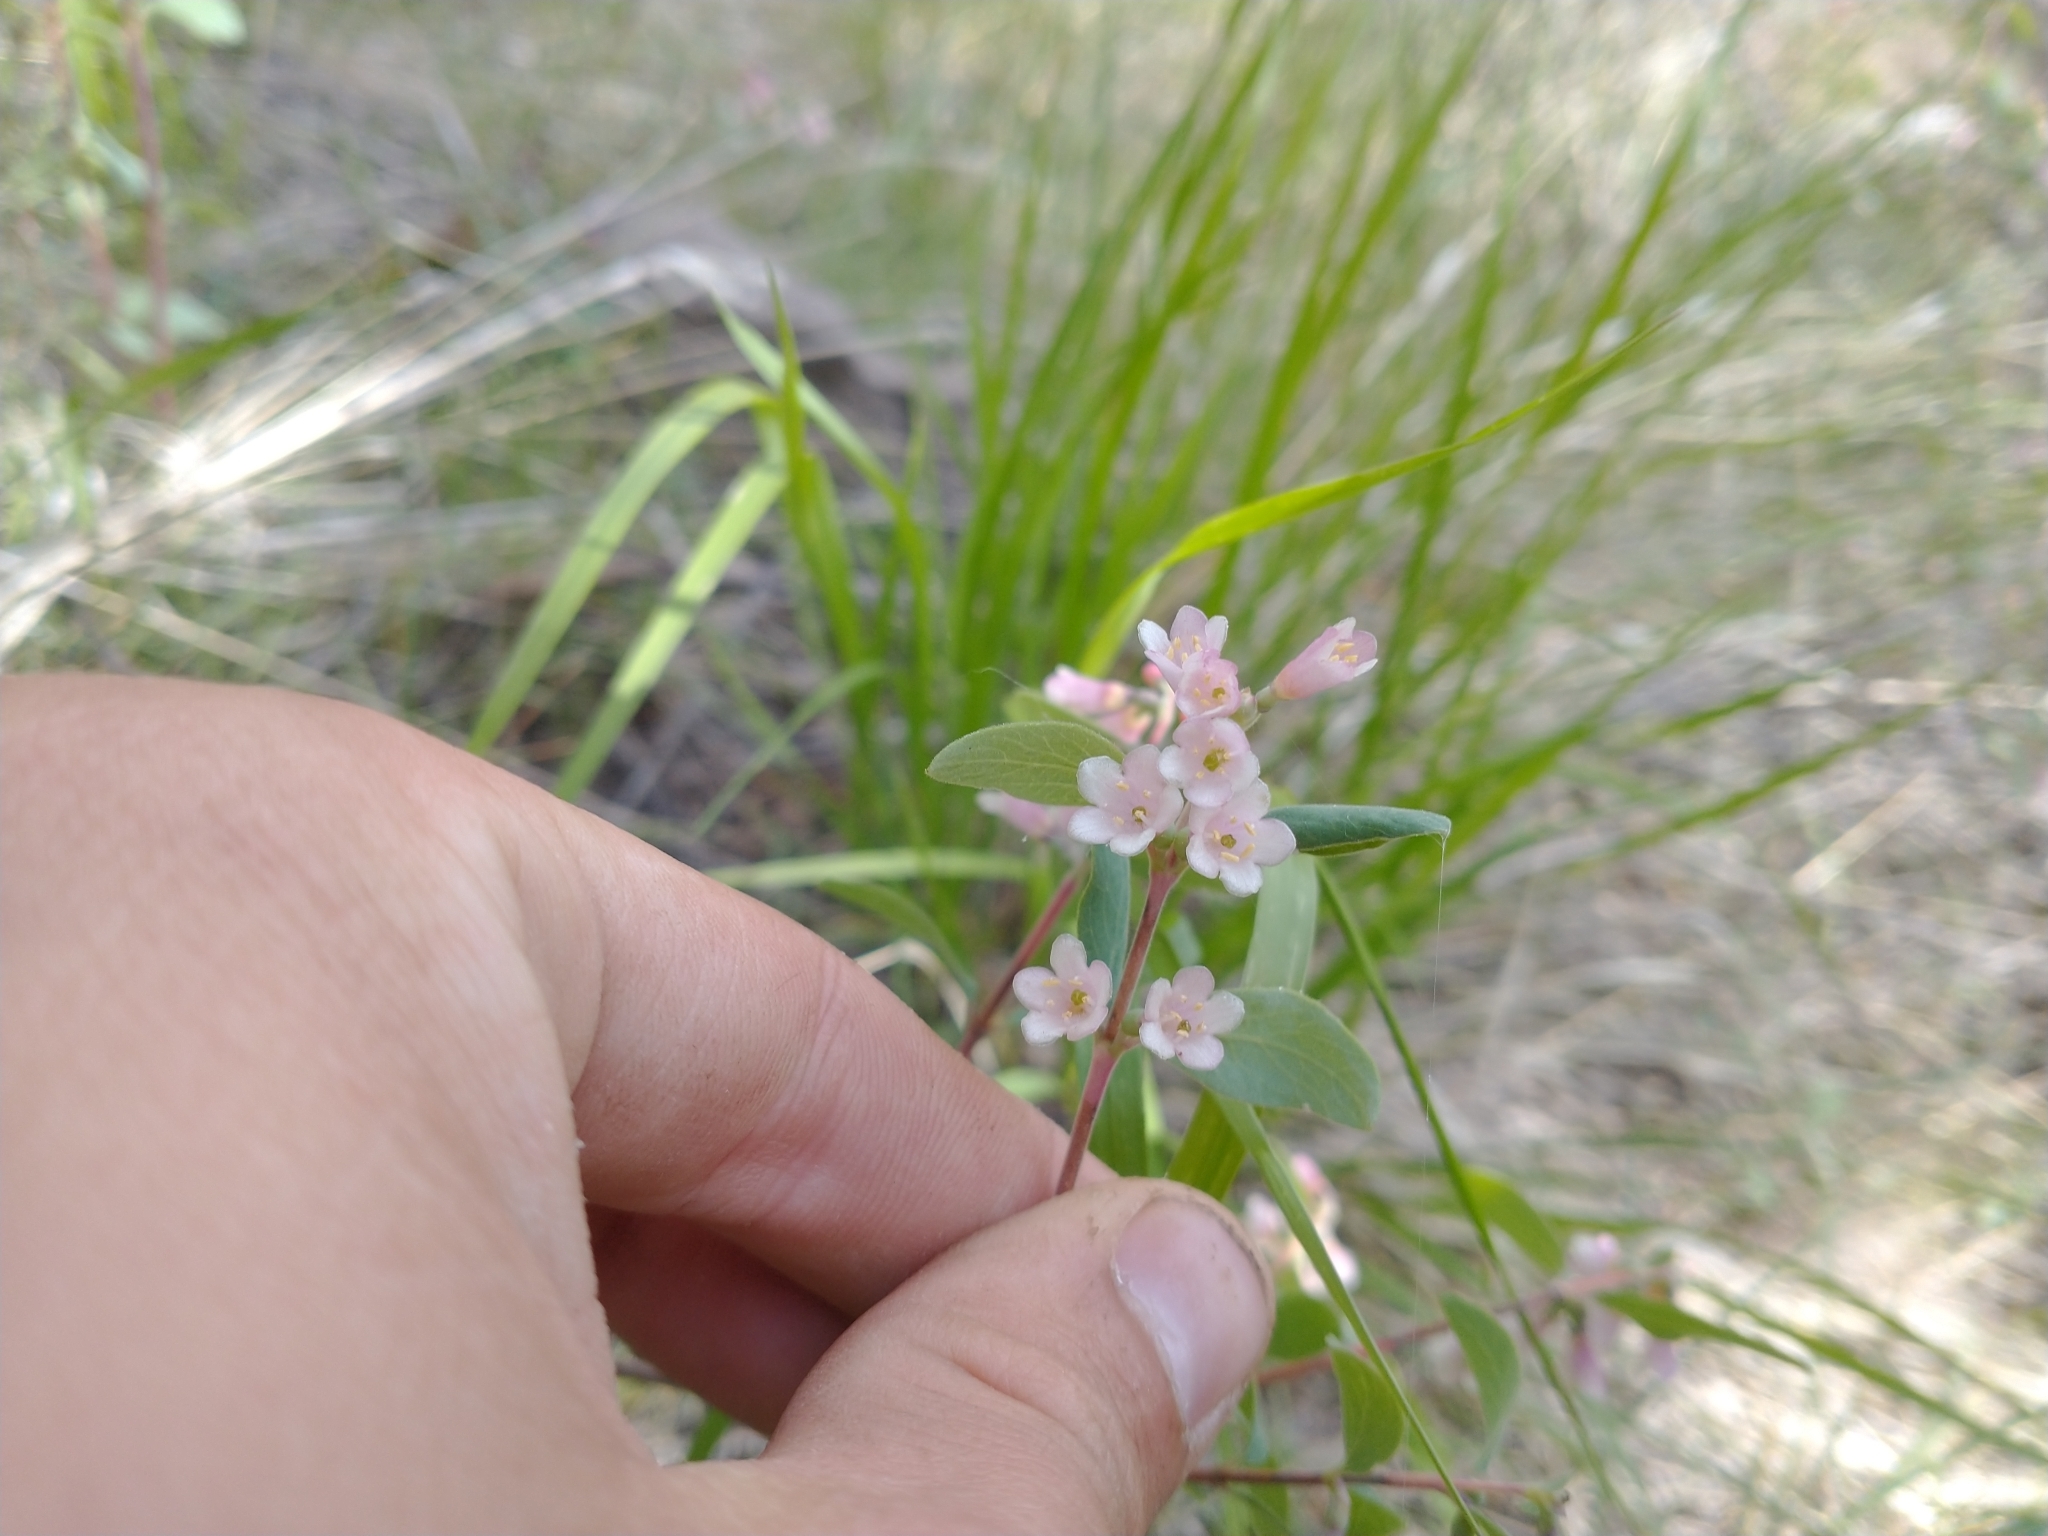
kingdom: Plantae
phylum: Tracheophyta
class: Magnoliopsida
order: Dipsacales
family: Caprifoliaceae
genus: Symphoricarpos
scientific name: Symphoricarpos rotundifolius
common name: Round-leaved snowberry
